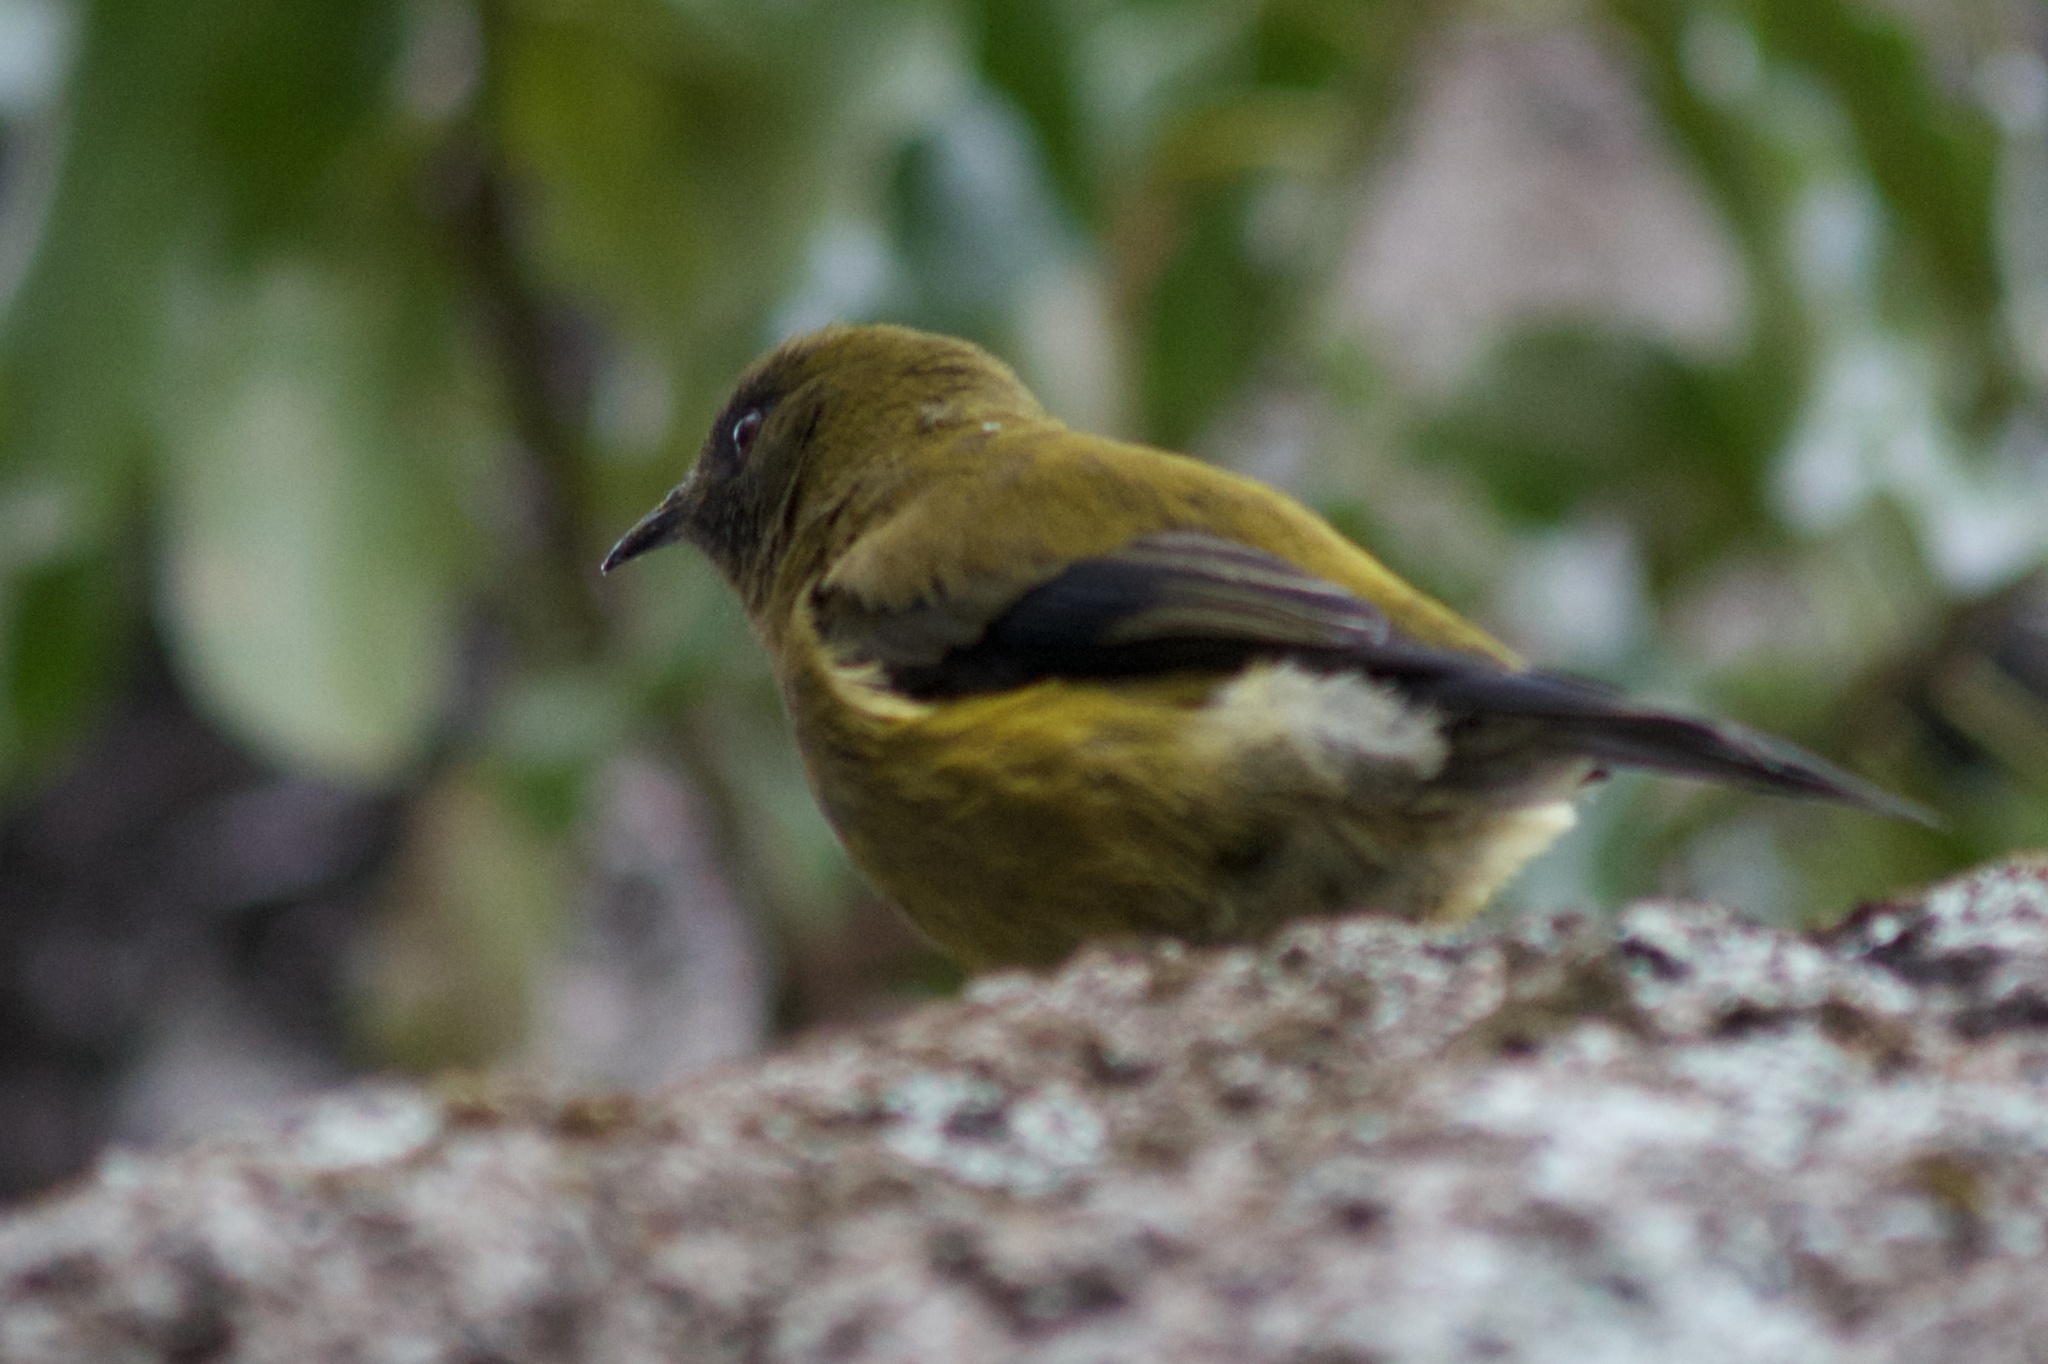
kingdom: Animalia
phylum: Chordata
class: Aves
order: Passeriformes
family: Meliphagidae
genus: Anthornis
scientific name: Anthornis melanura
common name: New zealand bellbird
